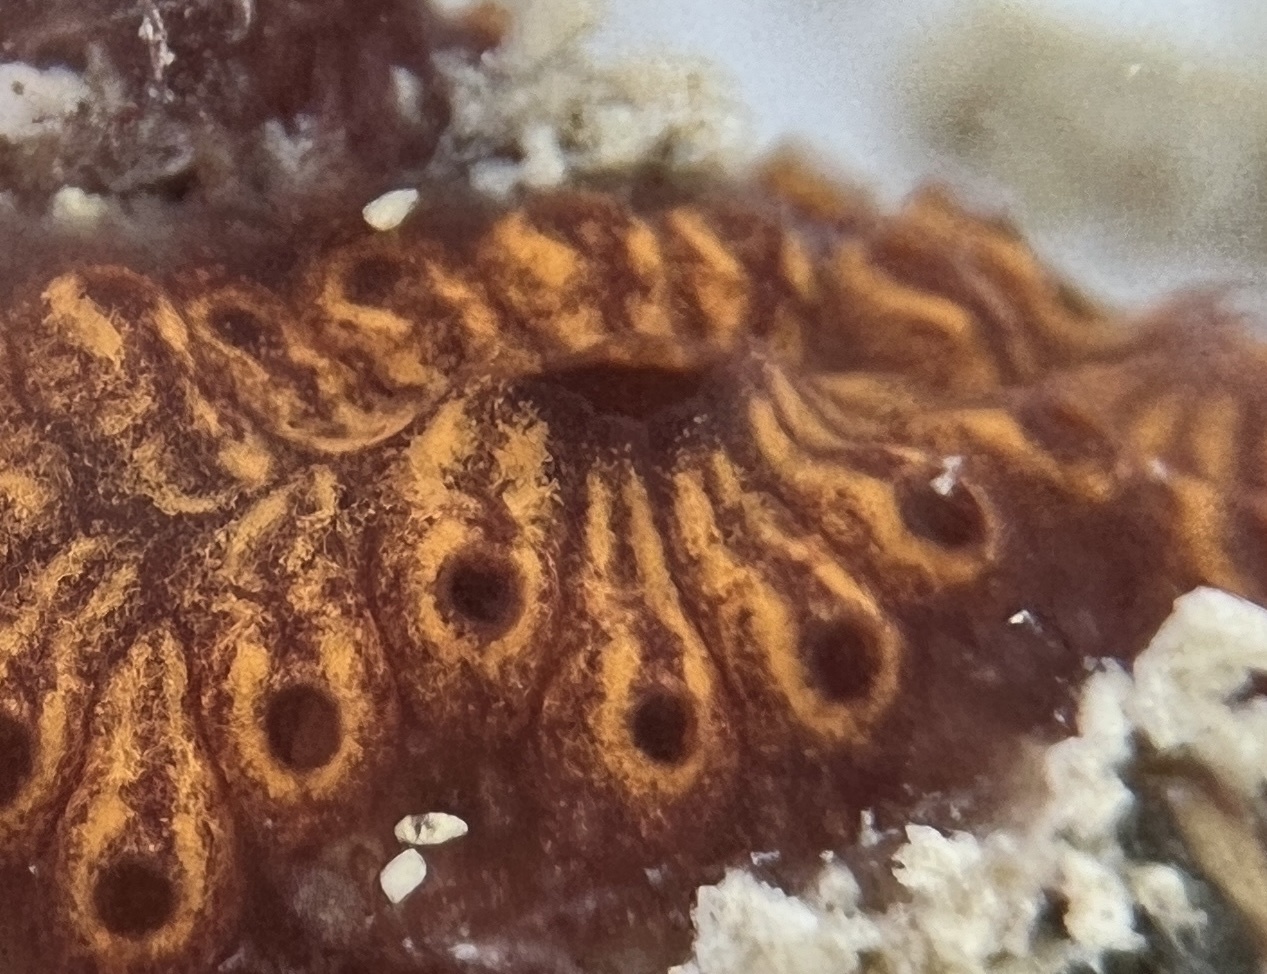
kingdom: Animalia
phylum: Chordata
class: Ascidiacea
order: Stolidobranchia
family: Styelidae
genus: Botrylloides
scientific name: Botrylloides niger
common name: Black synascidia
